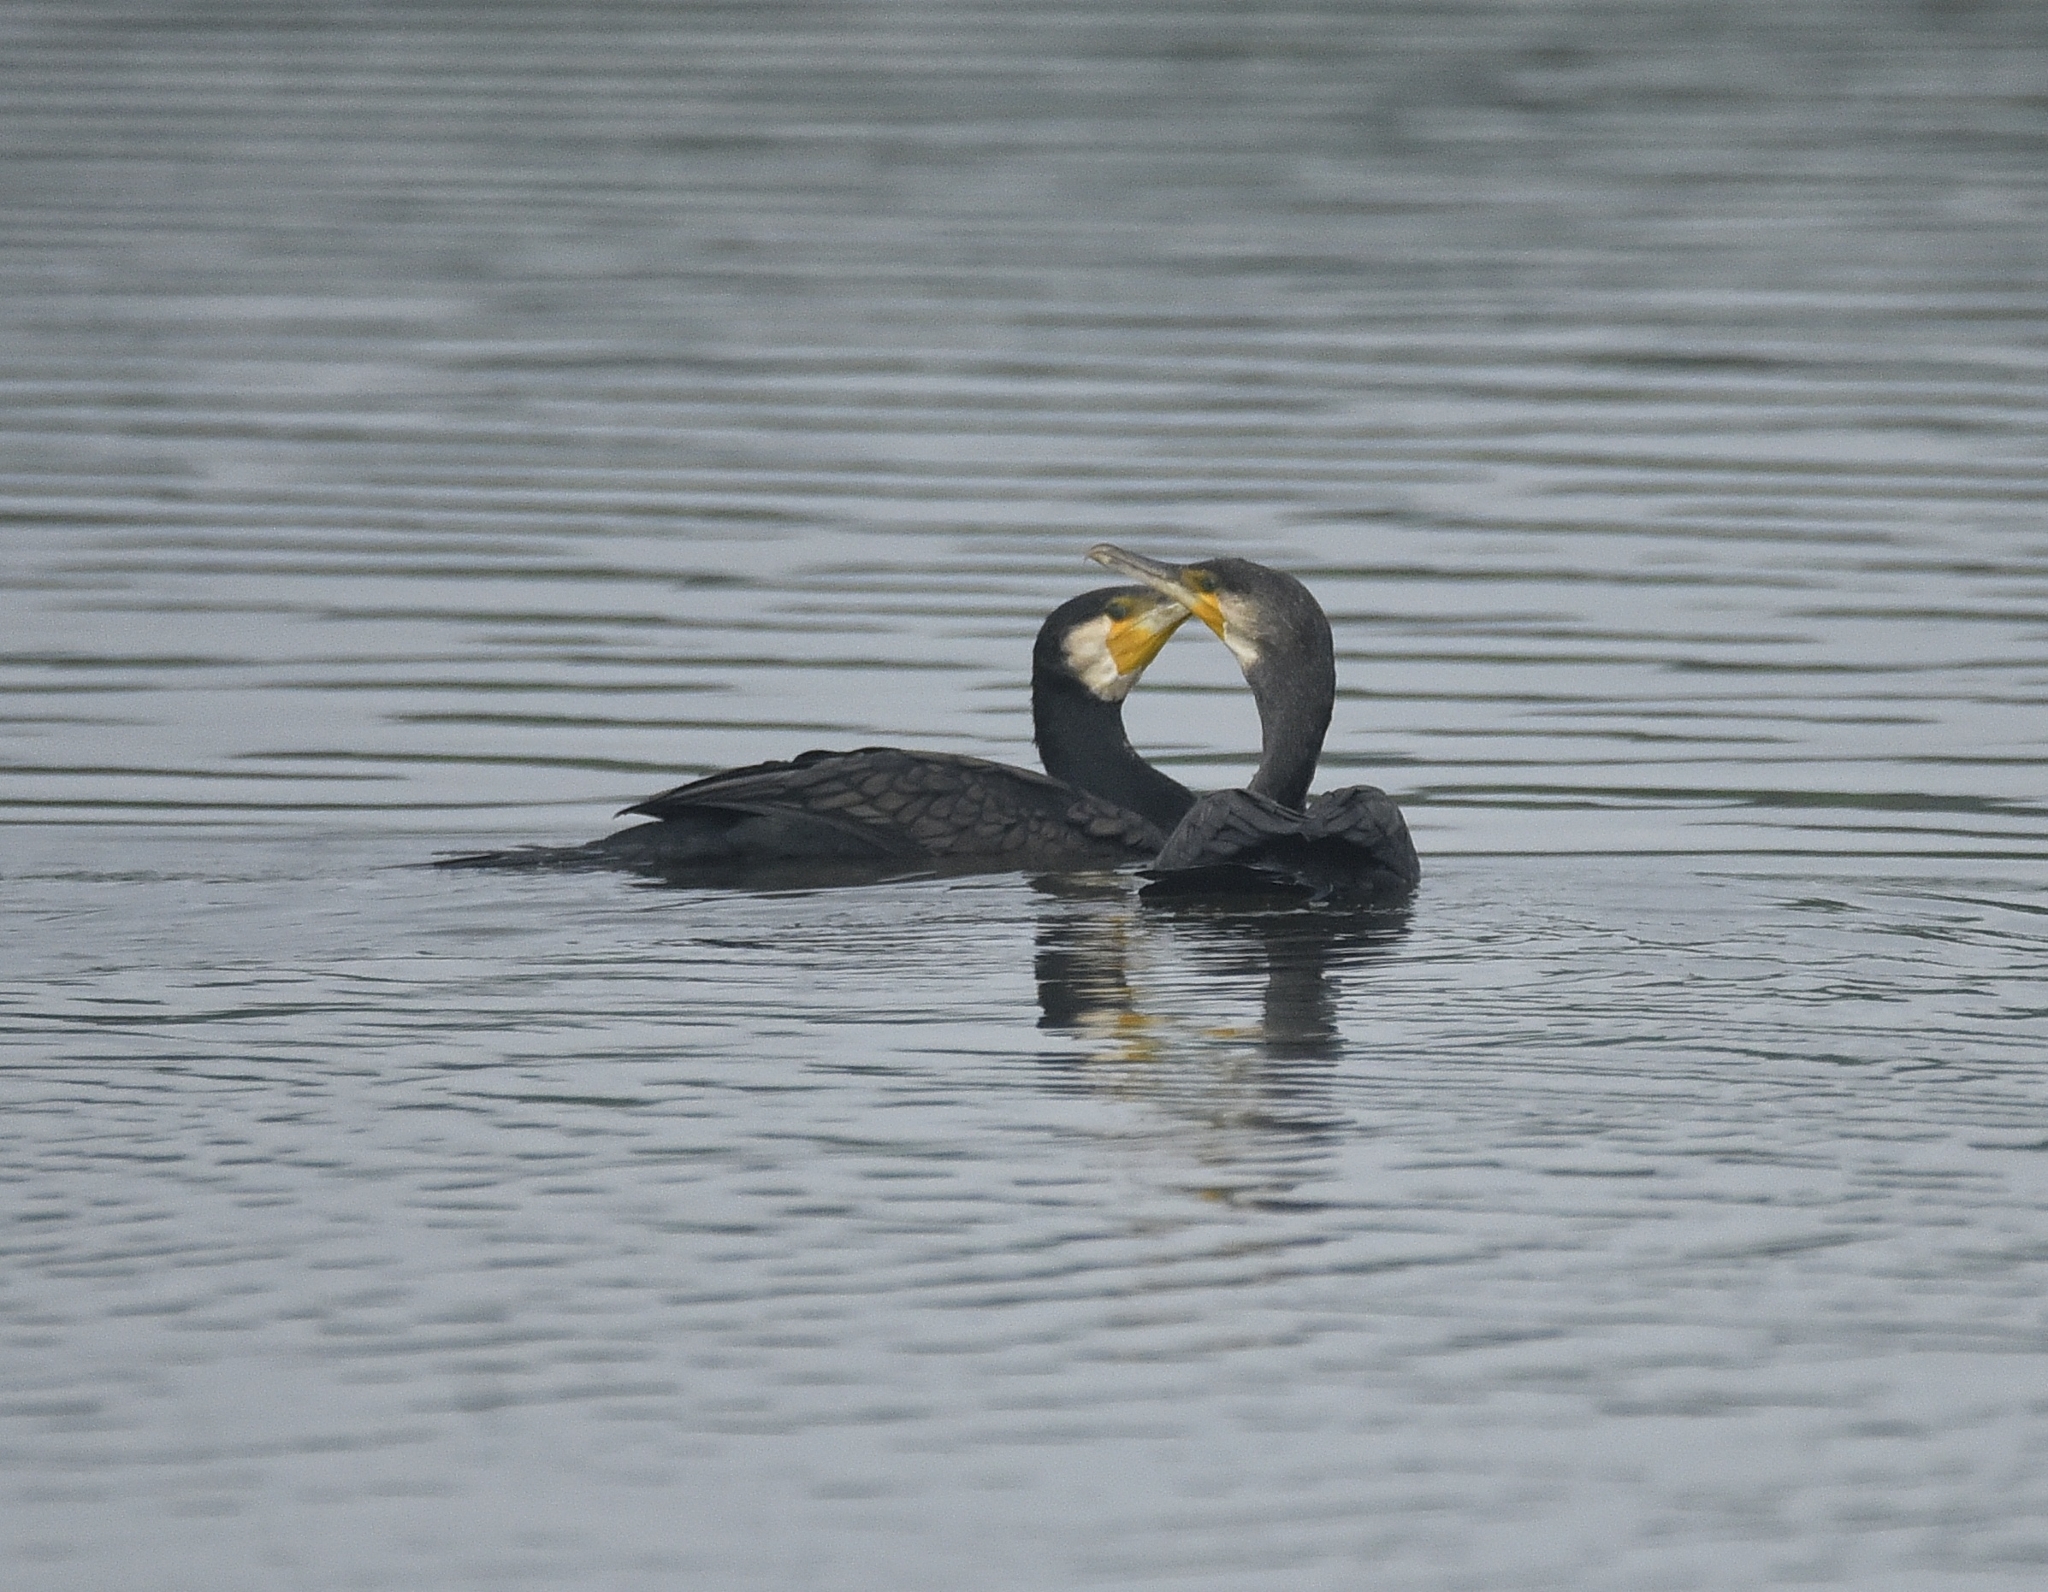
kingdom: Animalia
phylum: Chordata
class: Aves
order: Suliformes
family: Phalacrocoracidae
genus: Phalacrocorax
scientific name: Phalacrocorax carbo
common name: Great cormorant
